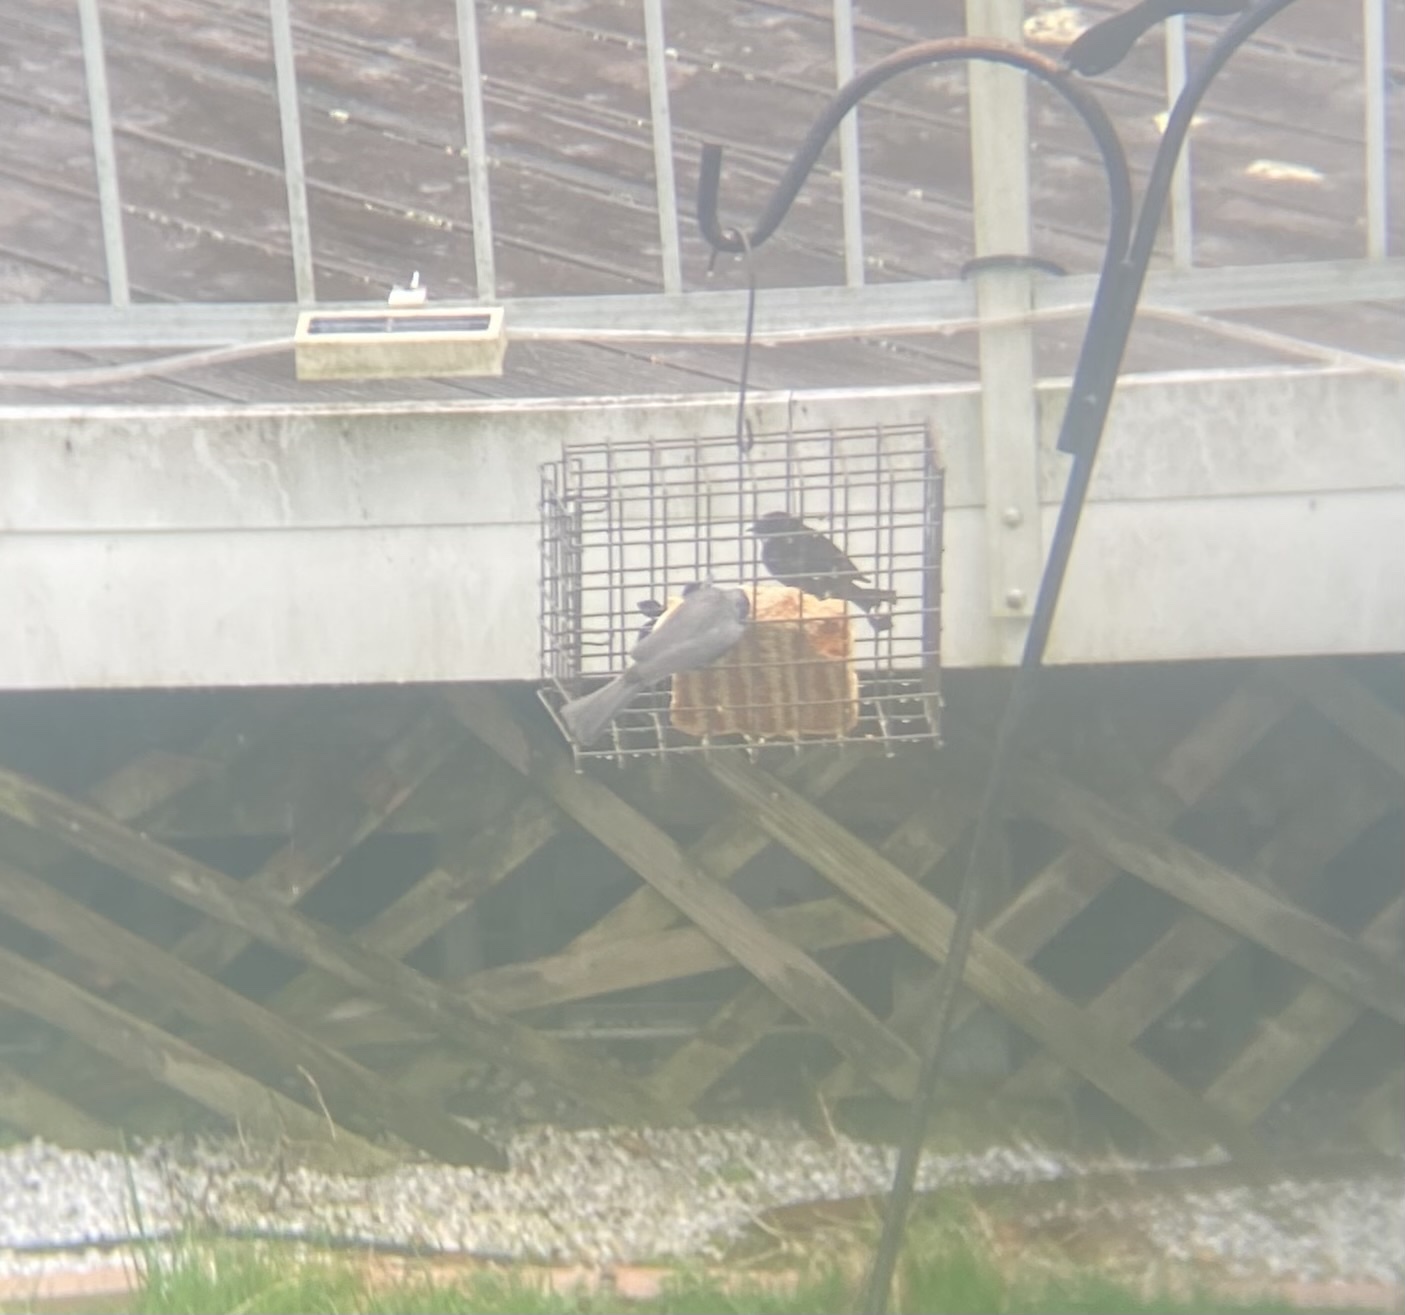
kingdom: Animalia
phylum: Chordata
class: Aves
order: Passeriformes
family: Paridae
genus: Baeolophus
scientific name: Baeolophus bicolor
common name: Tufted titmouse
